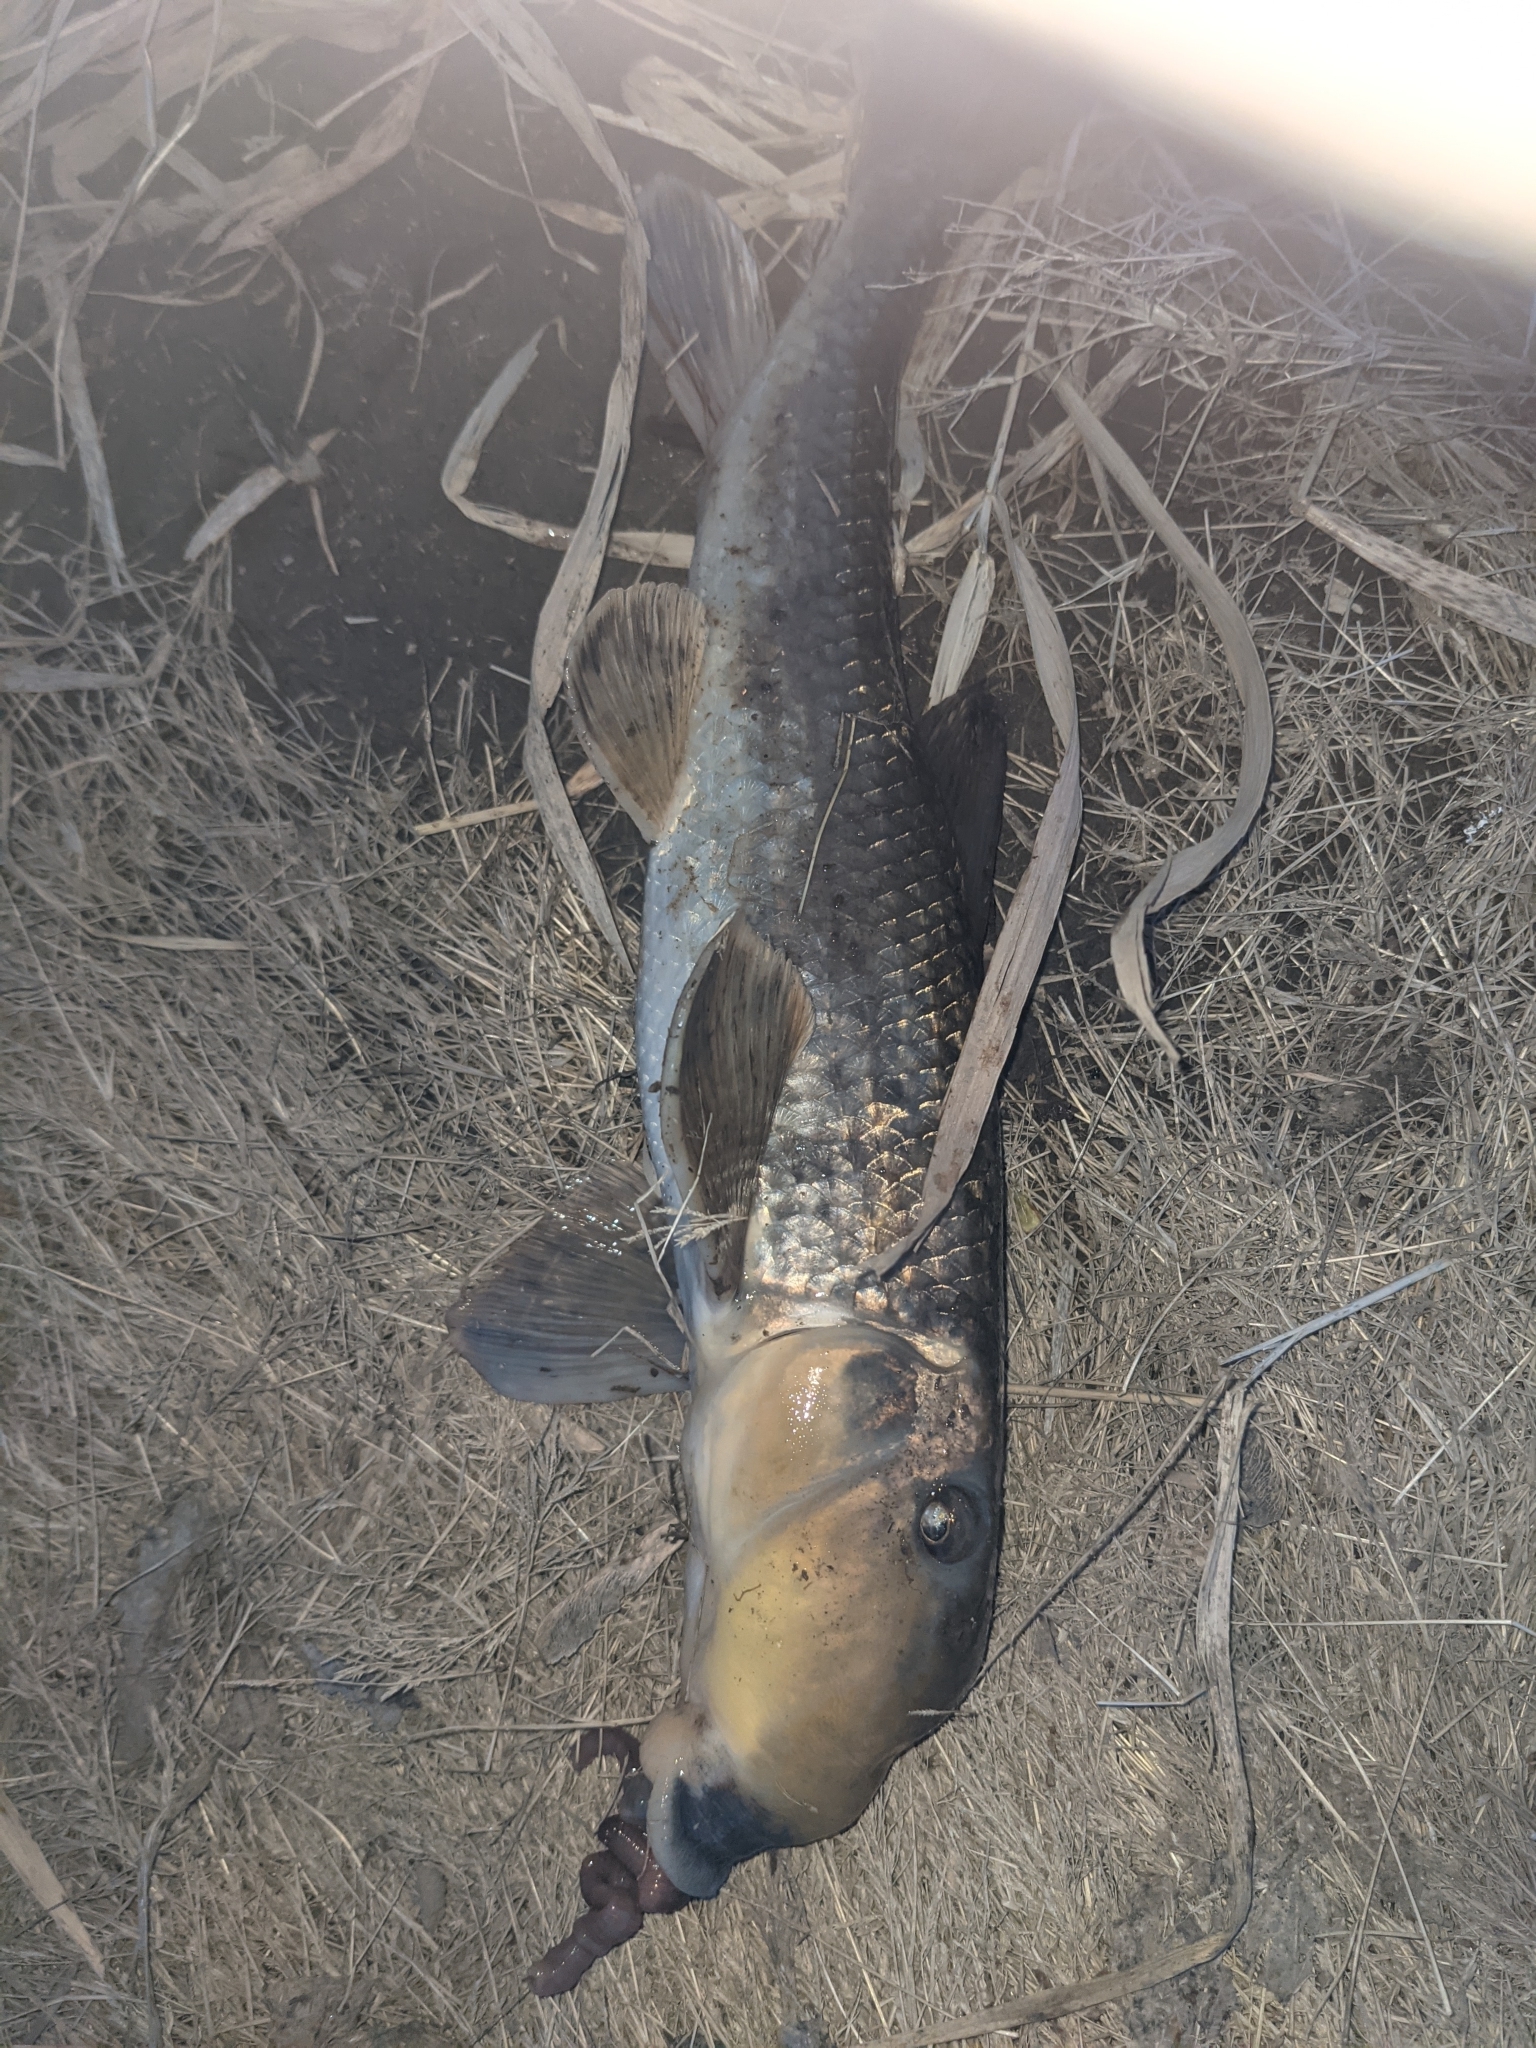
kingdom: Animalia
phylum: Chordata
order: Cypriniformes
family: Catostomidae
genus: Hypentelium
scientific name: Hypentelium nigricans
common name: Northern hog sucker
